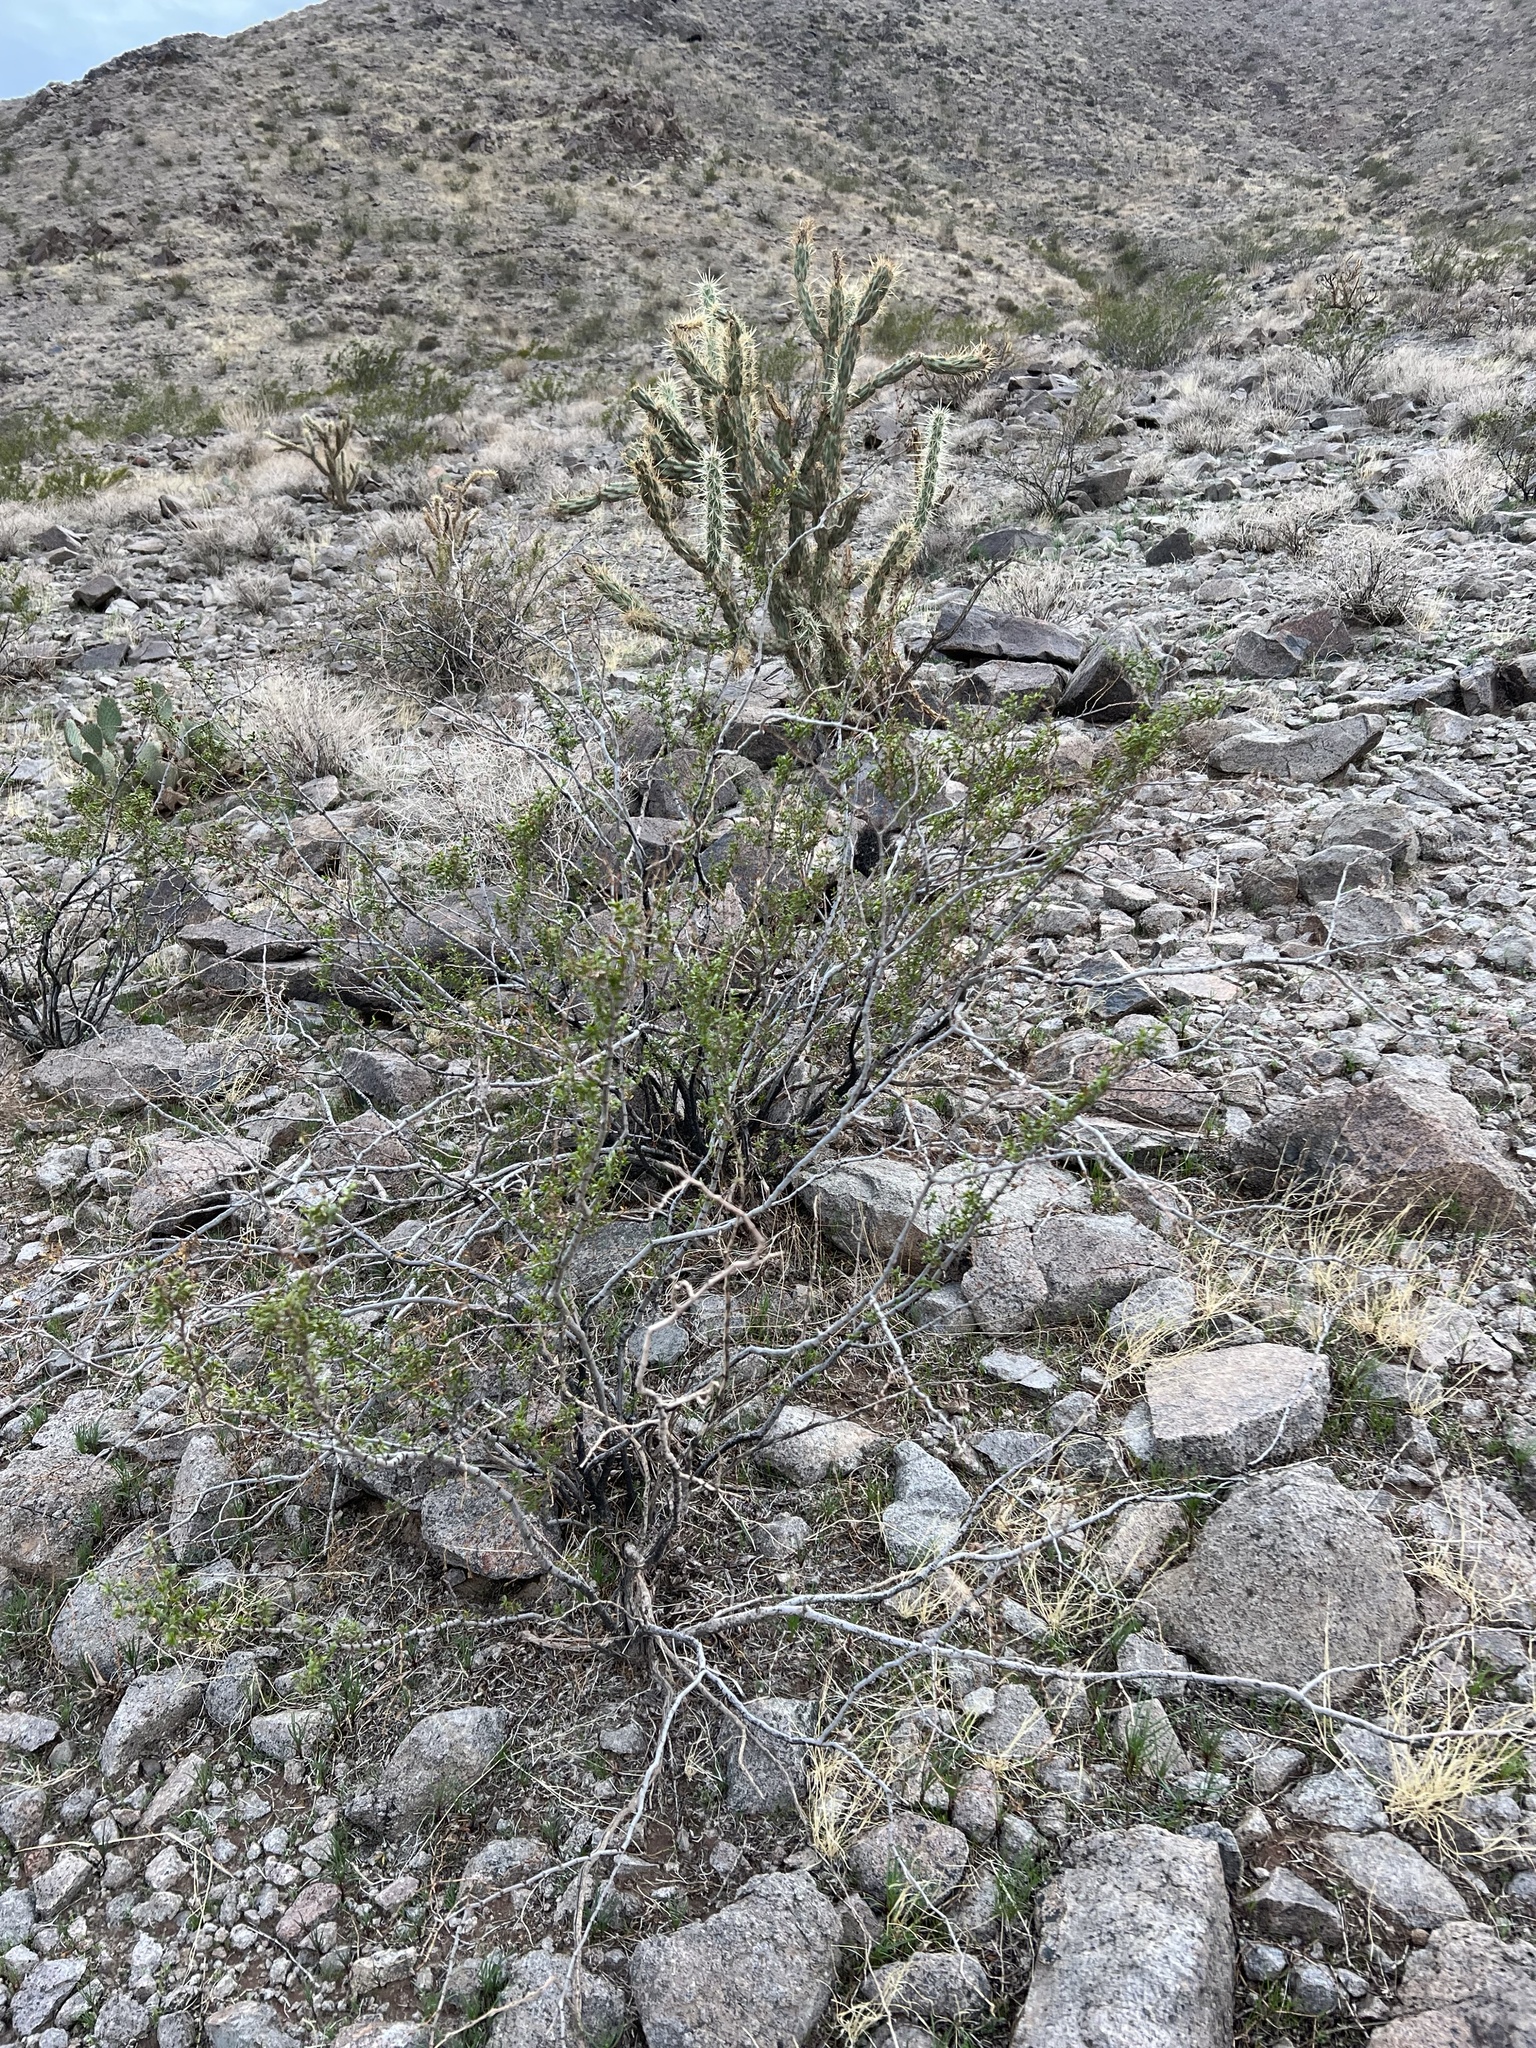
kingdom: Plantae
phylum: Tracheophyta
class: Magnoliopsida
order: Zygophyllales
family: Zygophyllaceae
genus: Larrea
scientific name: Larrea tridentata
